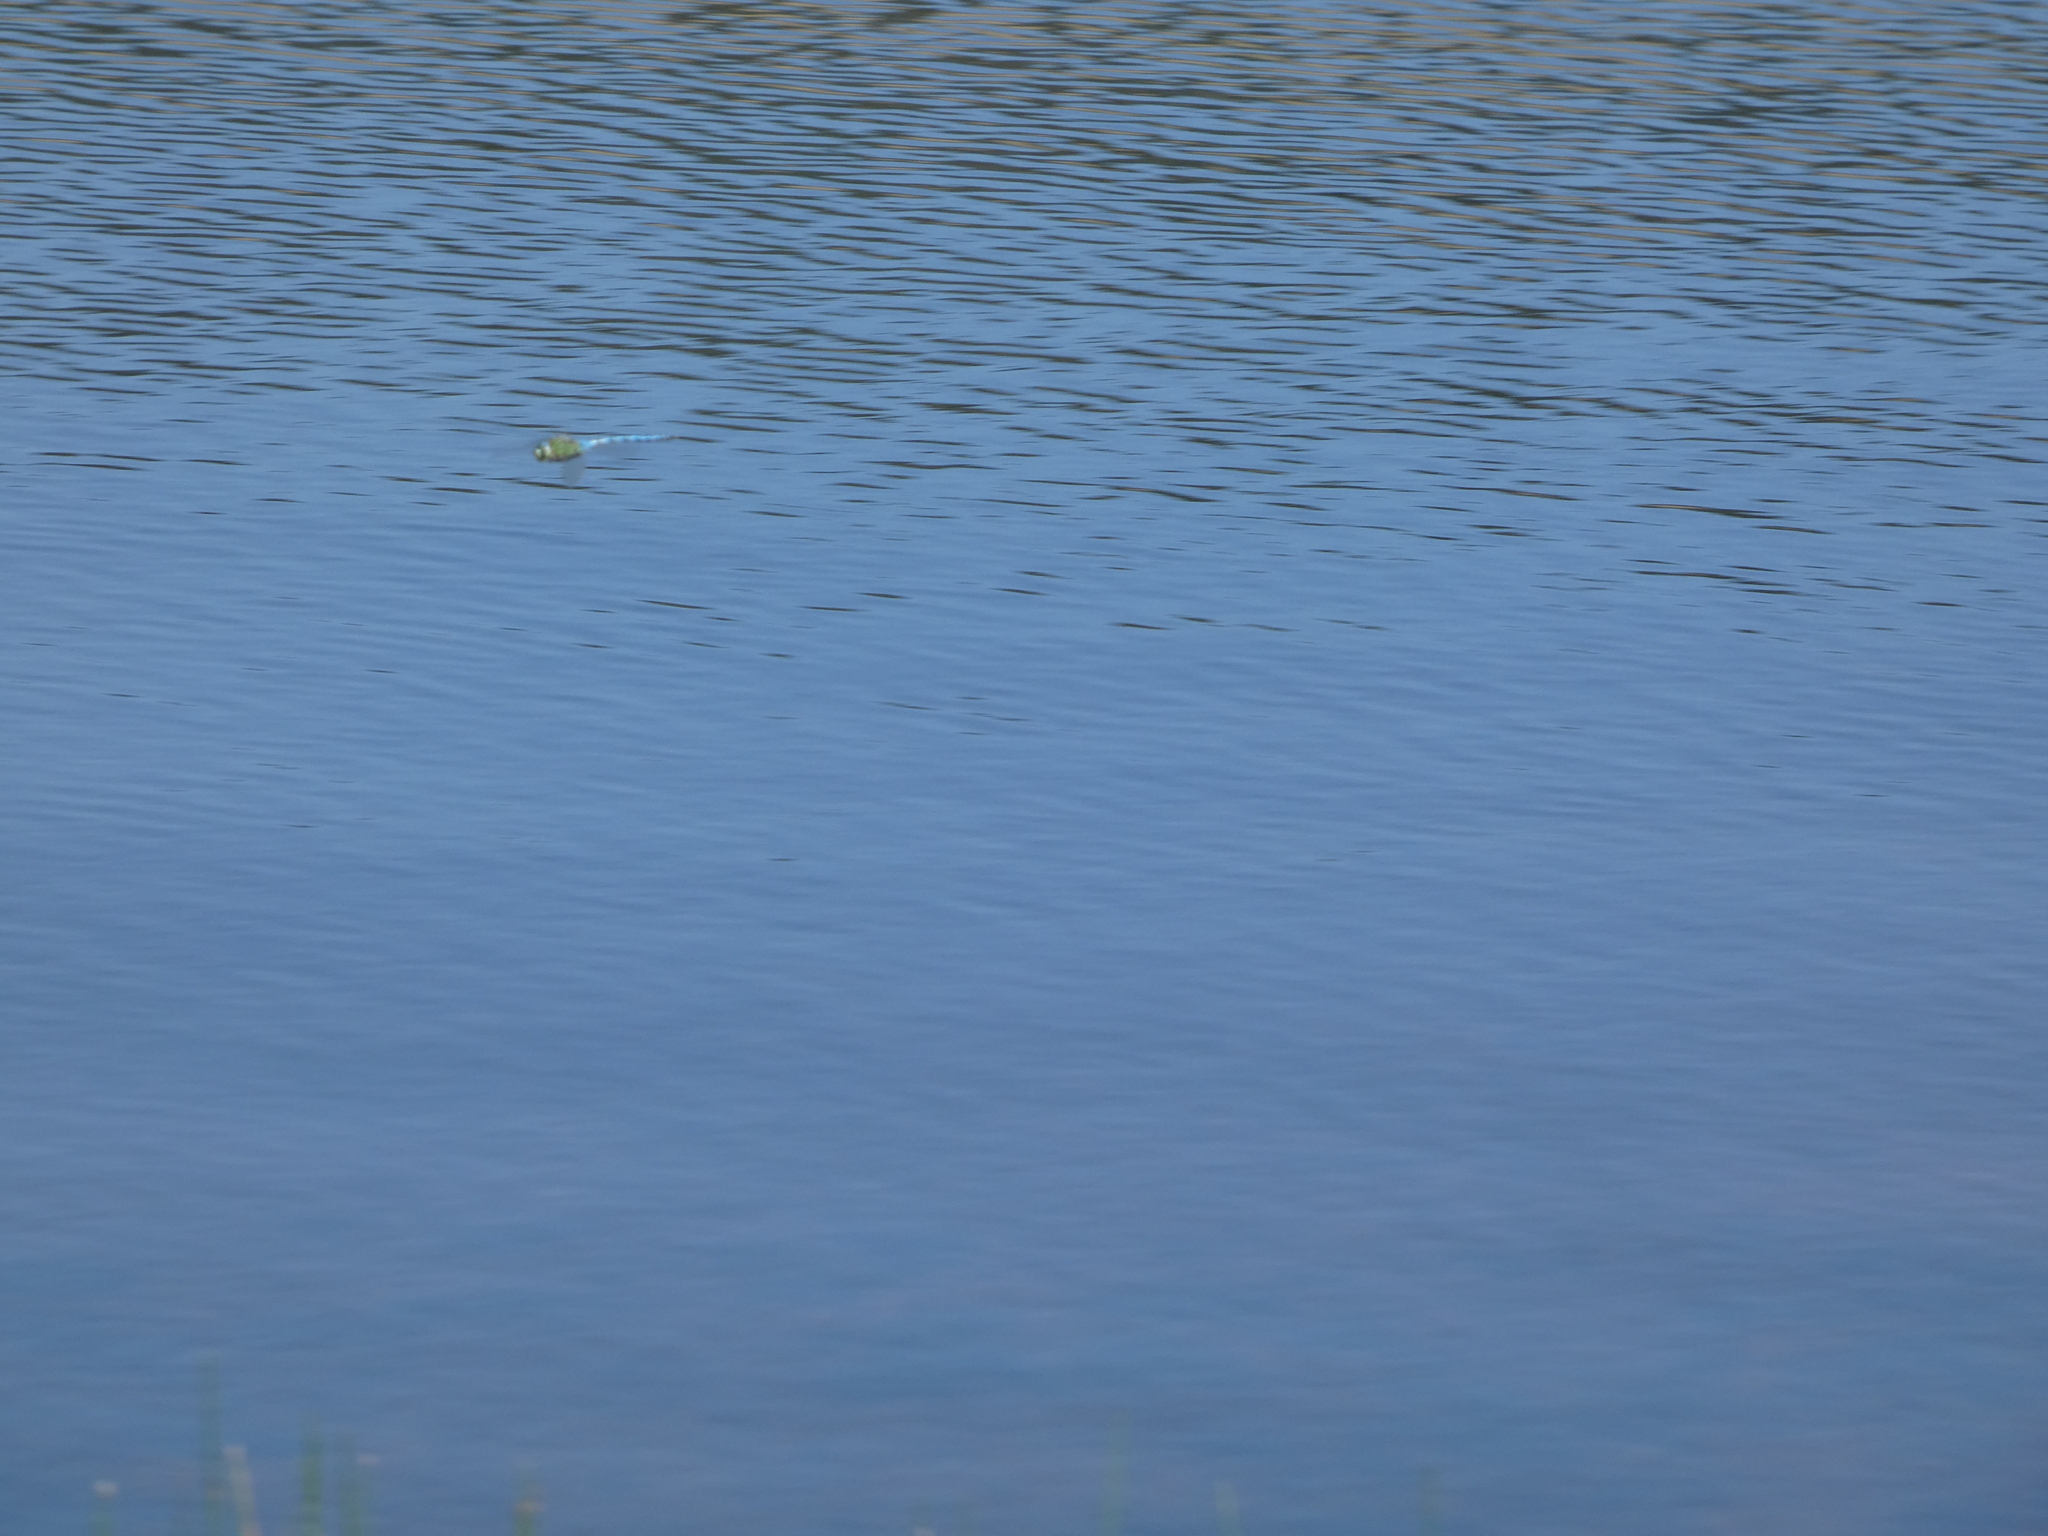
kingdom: Animalia
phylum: Arthropoda
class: Insecta
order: Odonata
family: Aeshnidae
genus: Anax
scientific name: Anax imperator
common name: Emperor dragonfly
